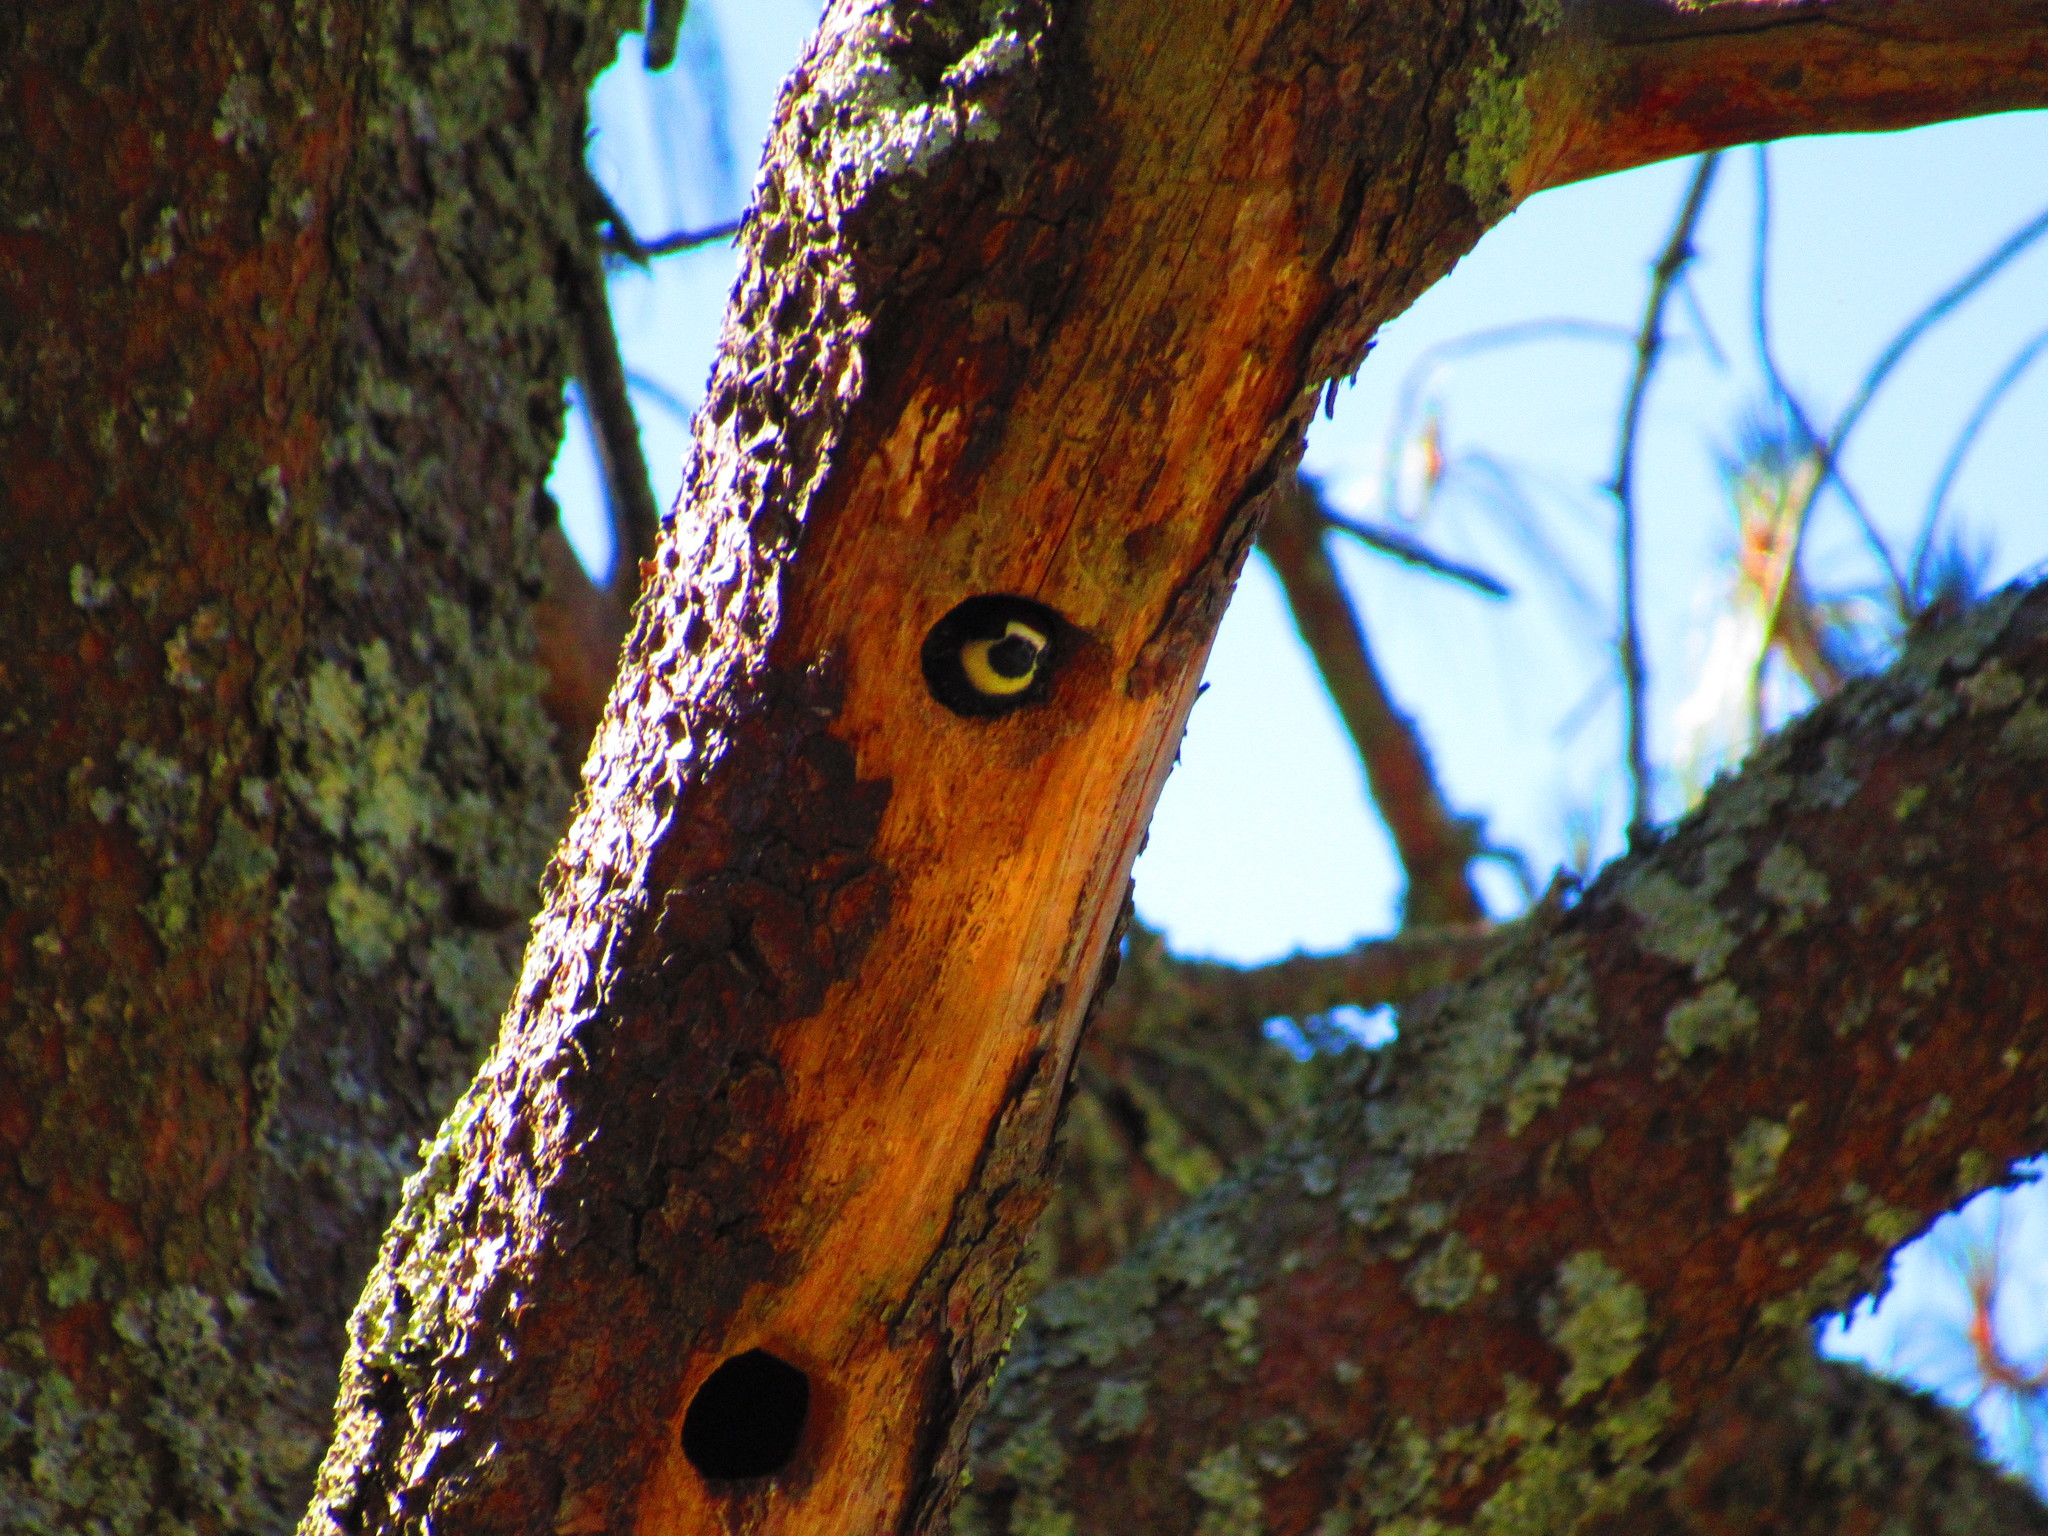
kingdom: Animalia
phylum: Chordata
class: Aves
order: Piciformes
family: Picidae
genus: Melanerpes
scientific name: Melanerpes formicivorus
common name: Acorn woodpecker
